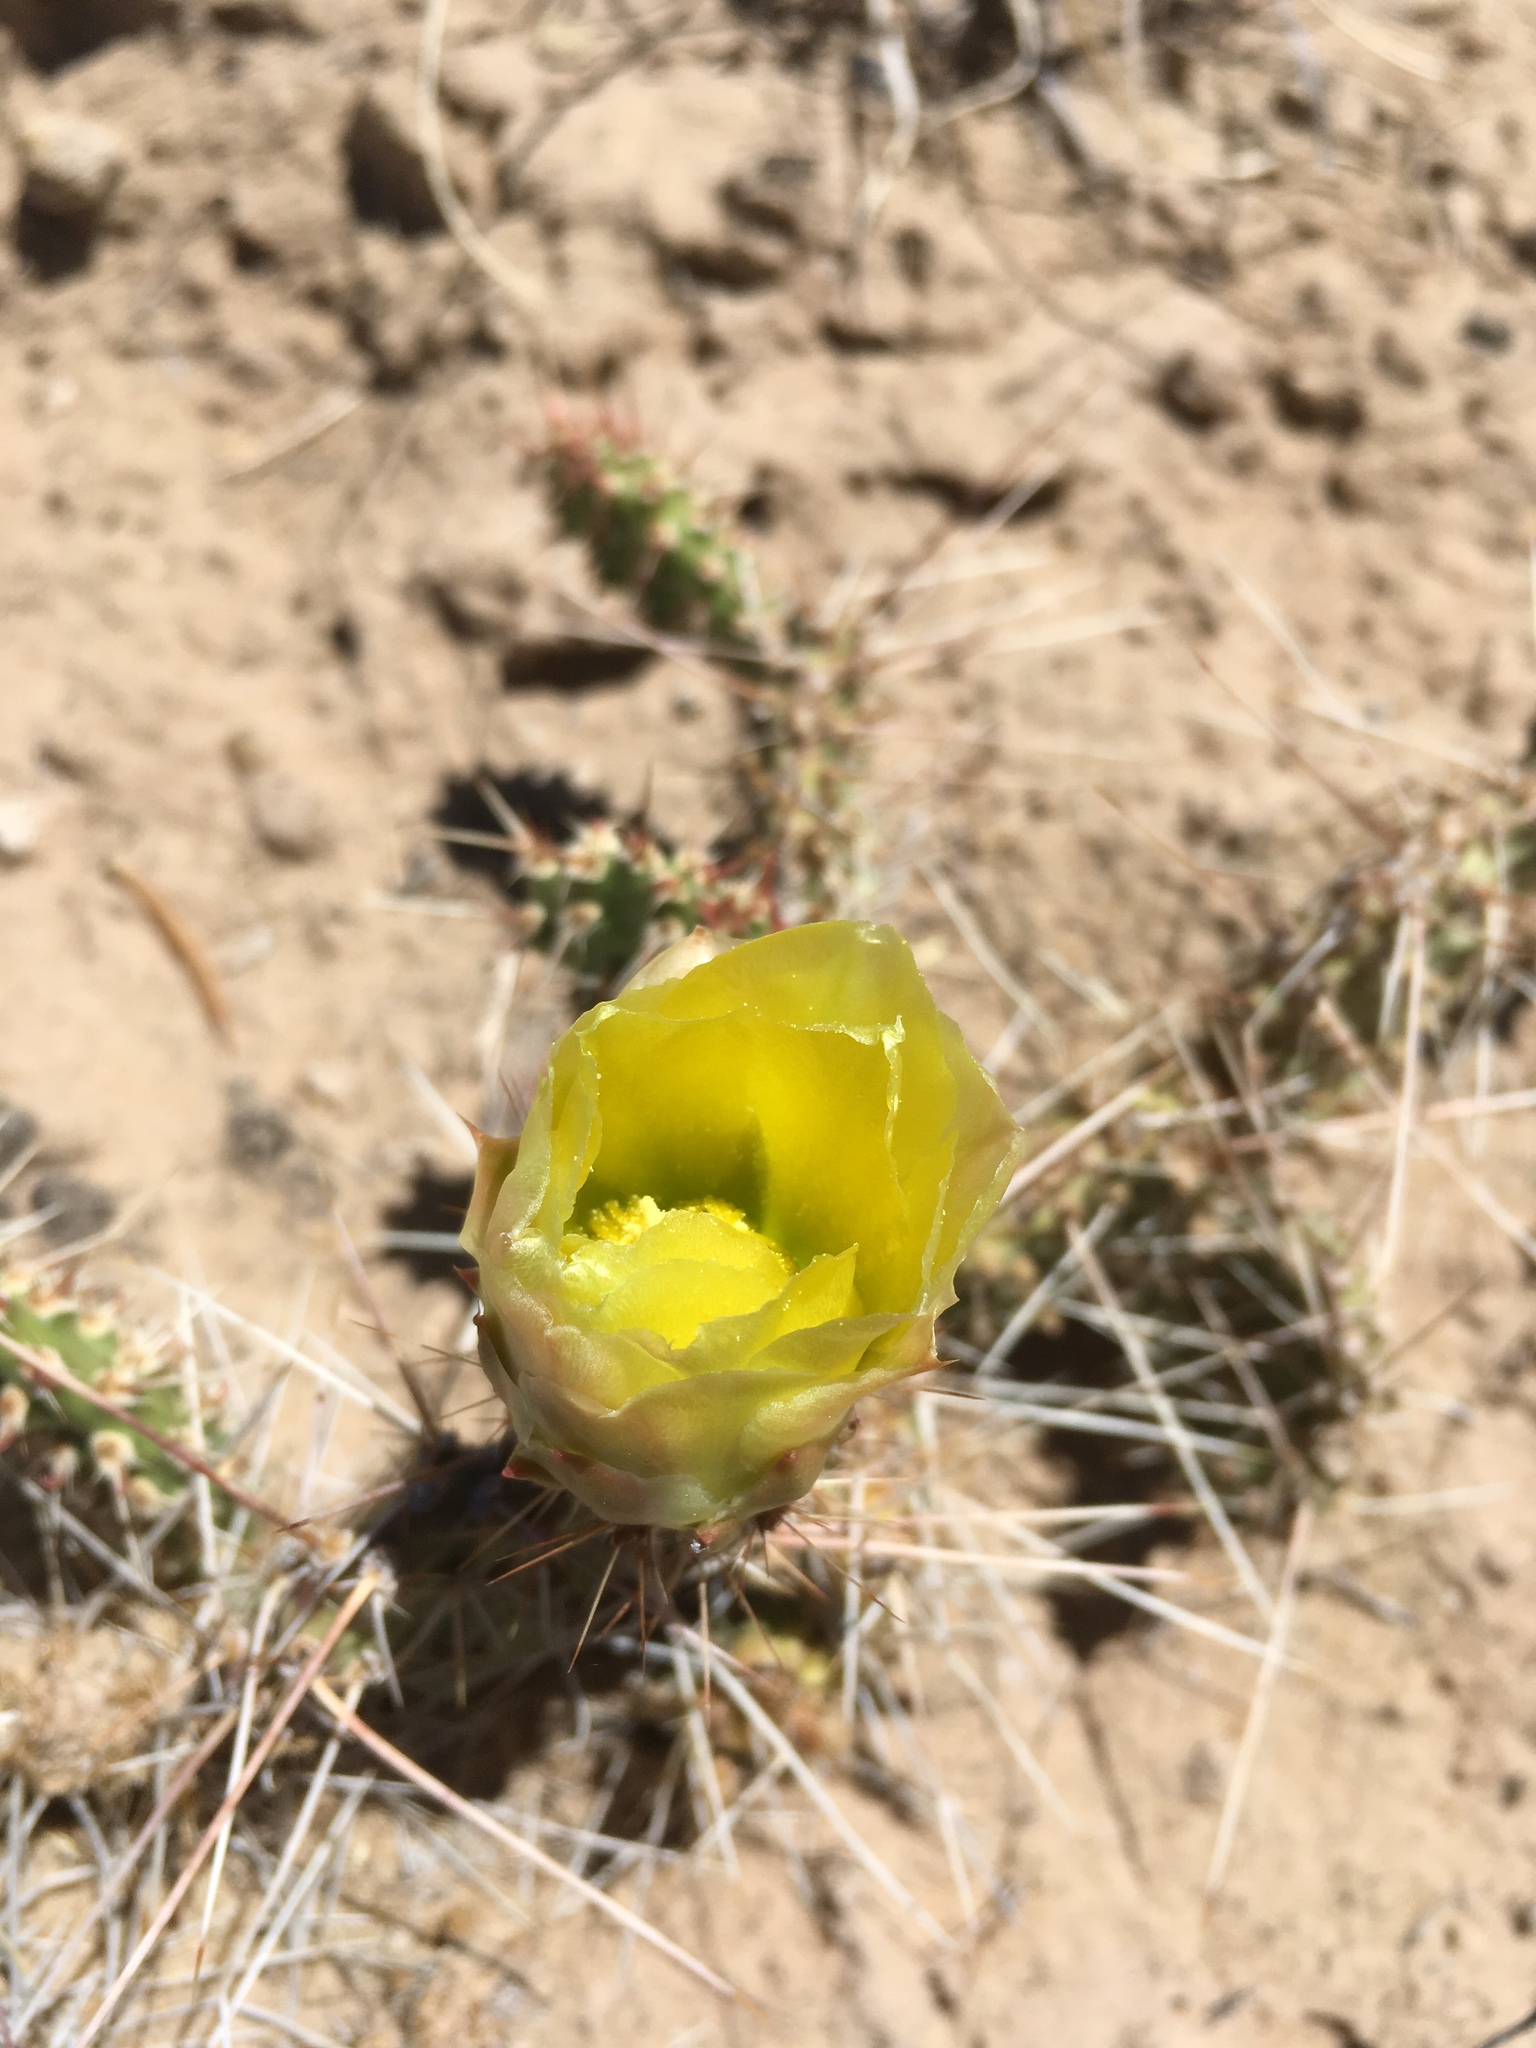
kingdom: Plantae
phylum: Tracheophyta
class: Magnoliopsida
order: Caryophyllales
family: Cactaceae
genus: Opuntia
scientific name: Opuntia polyacantha
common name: Plains prickly-pear
